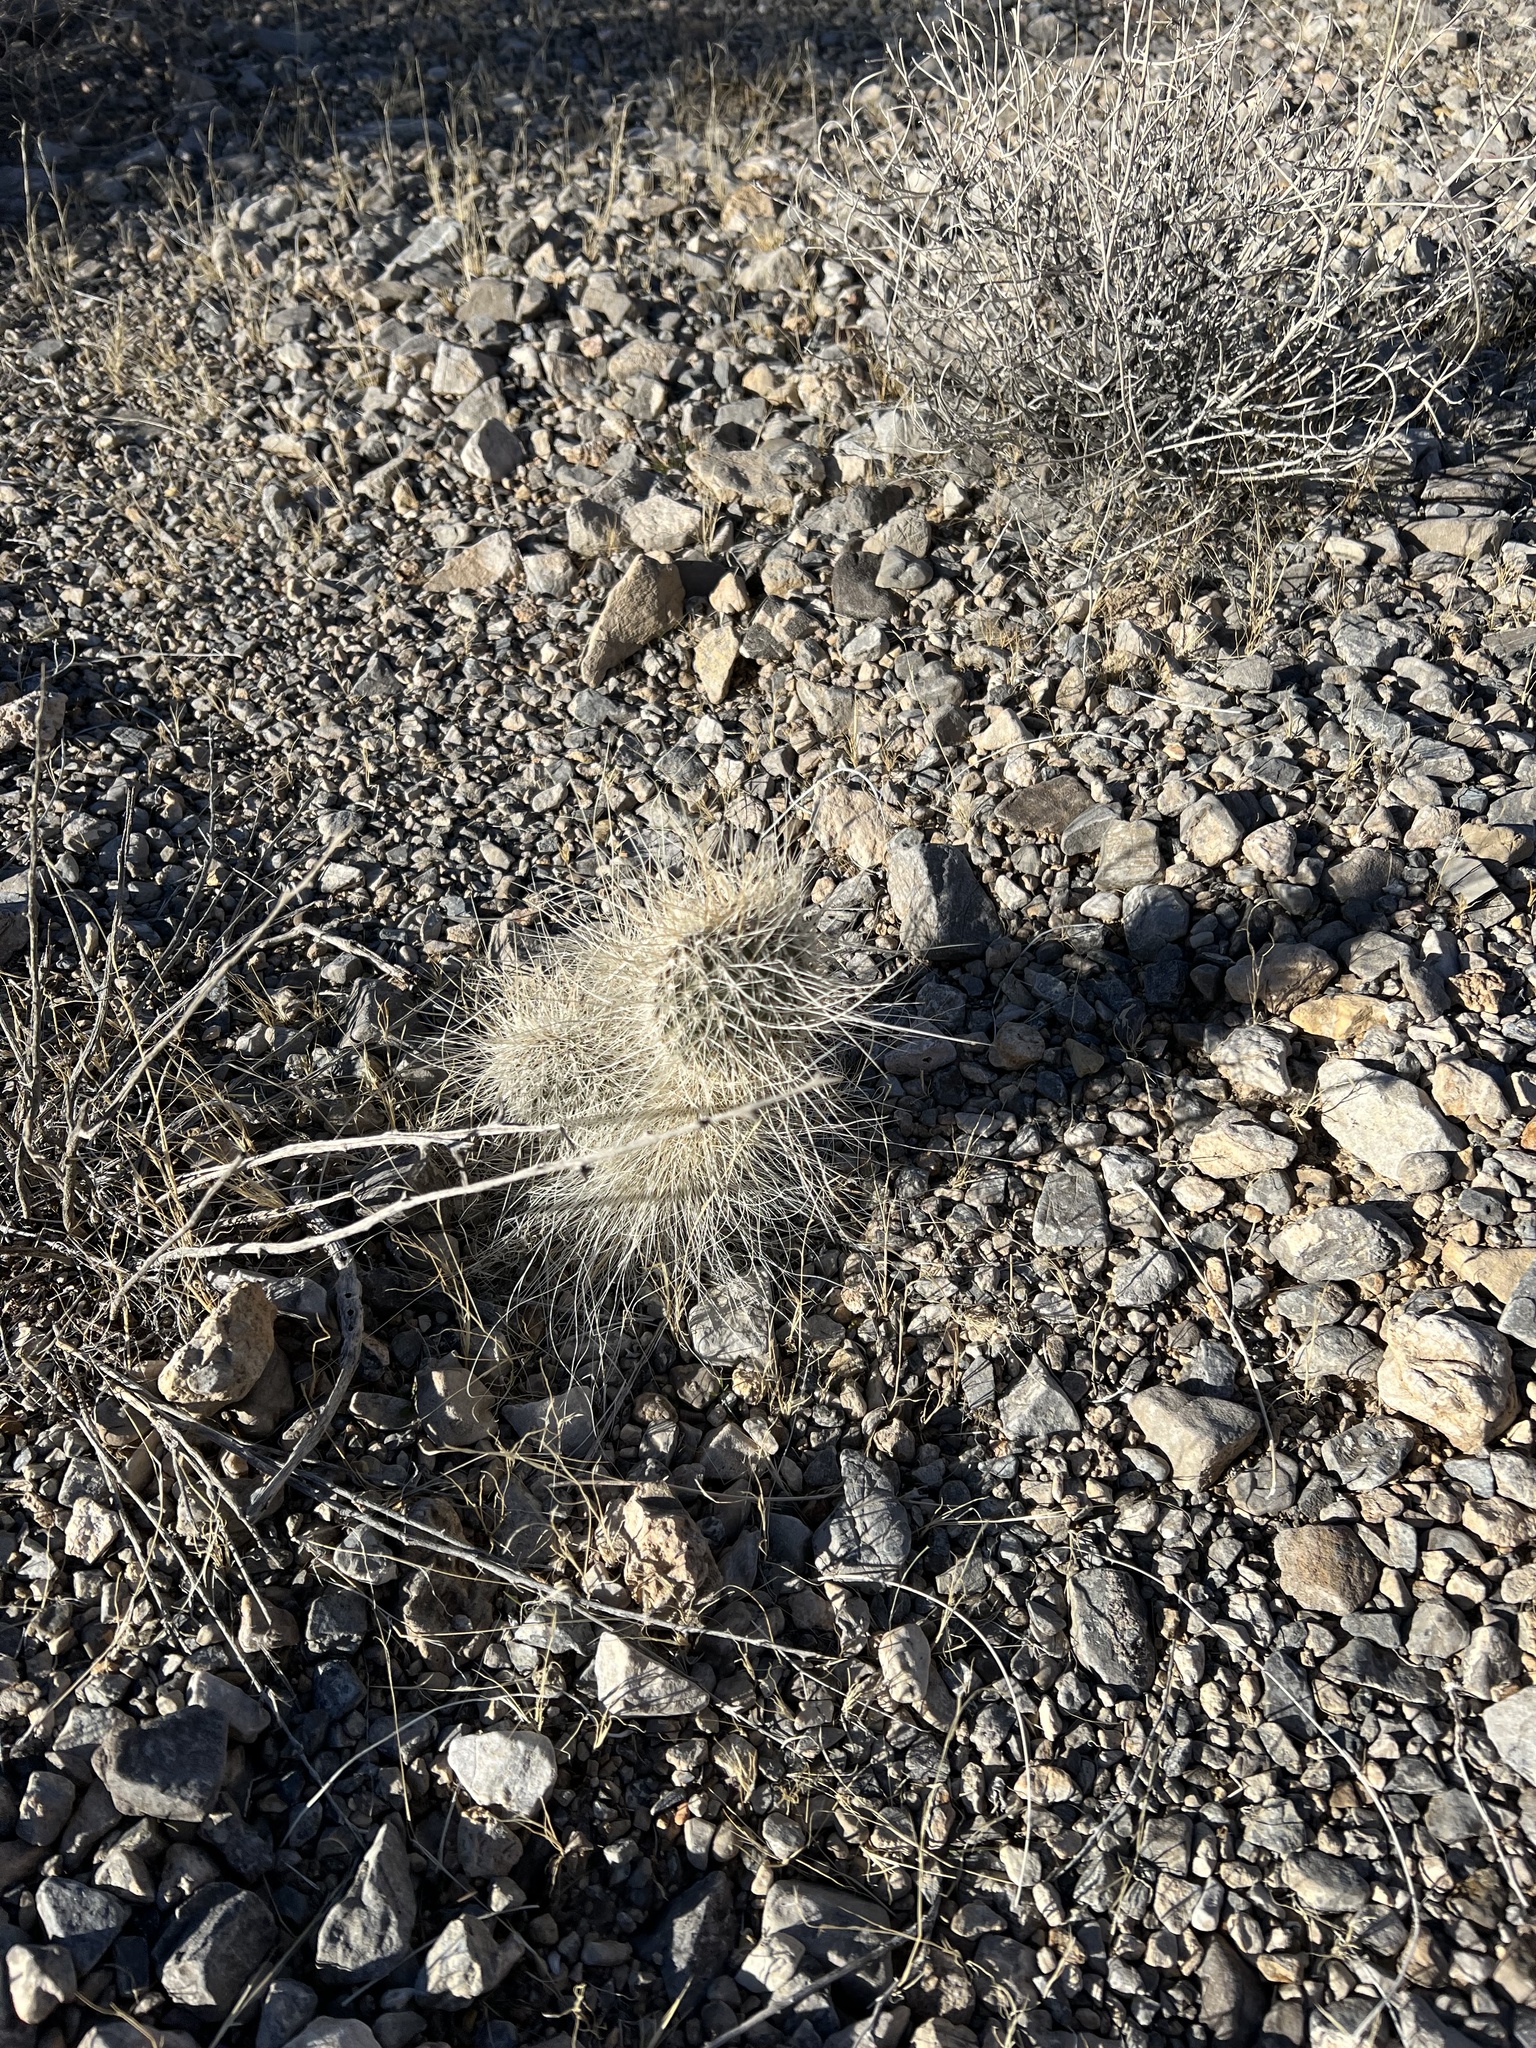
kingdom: Plantae
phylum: Tracheophyta
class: Magnoliopsida
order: Caryophyllales
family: Cactaceae
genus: Opuntia
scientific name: Opuntia polyacantha
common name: Plains prickly-pear
